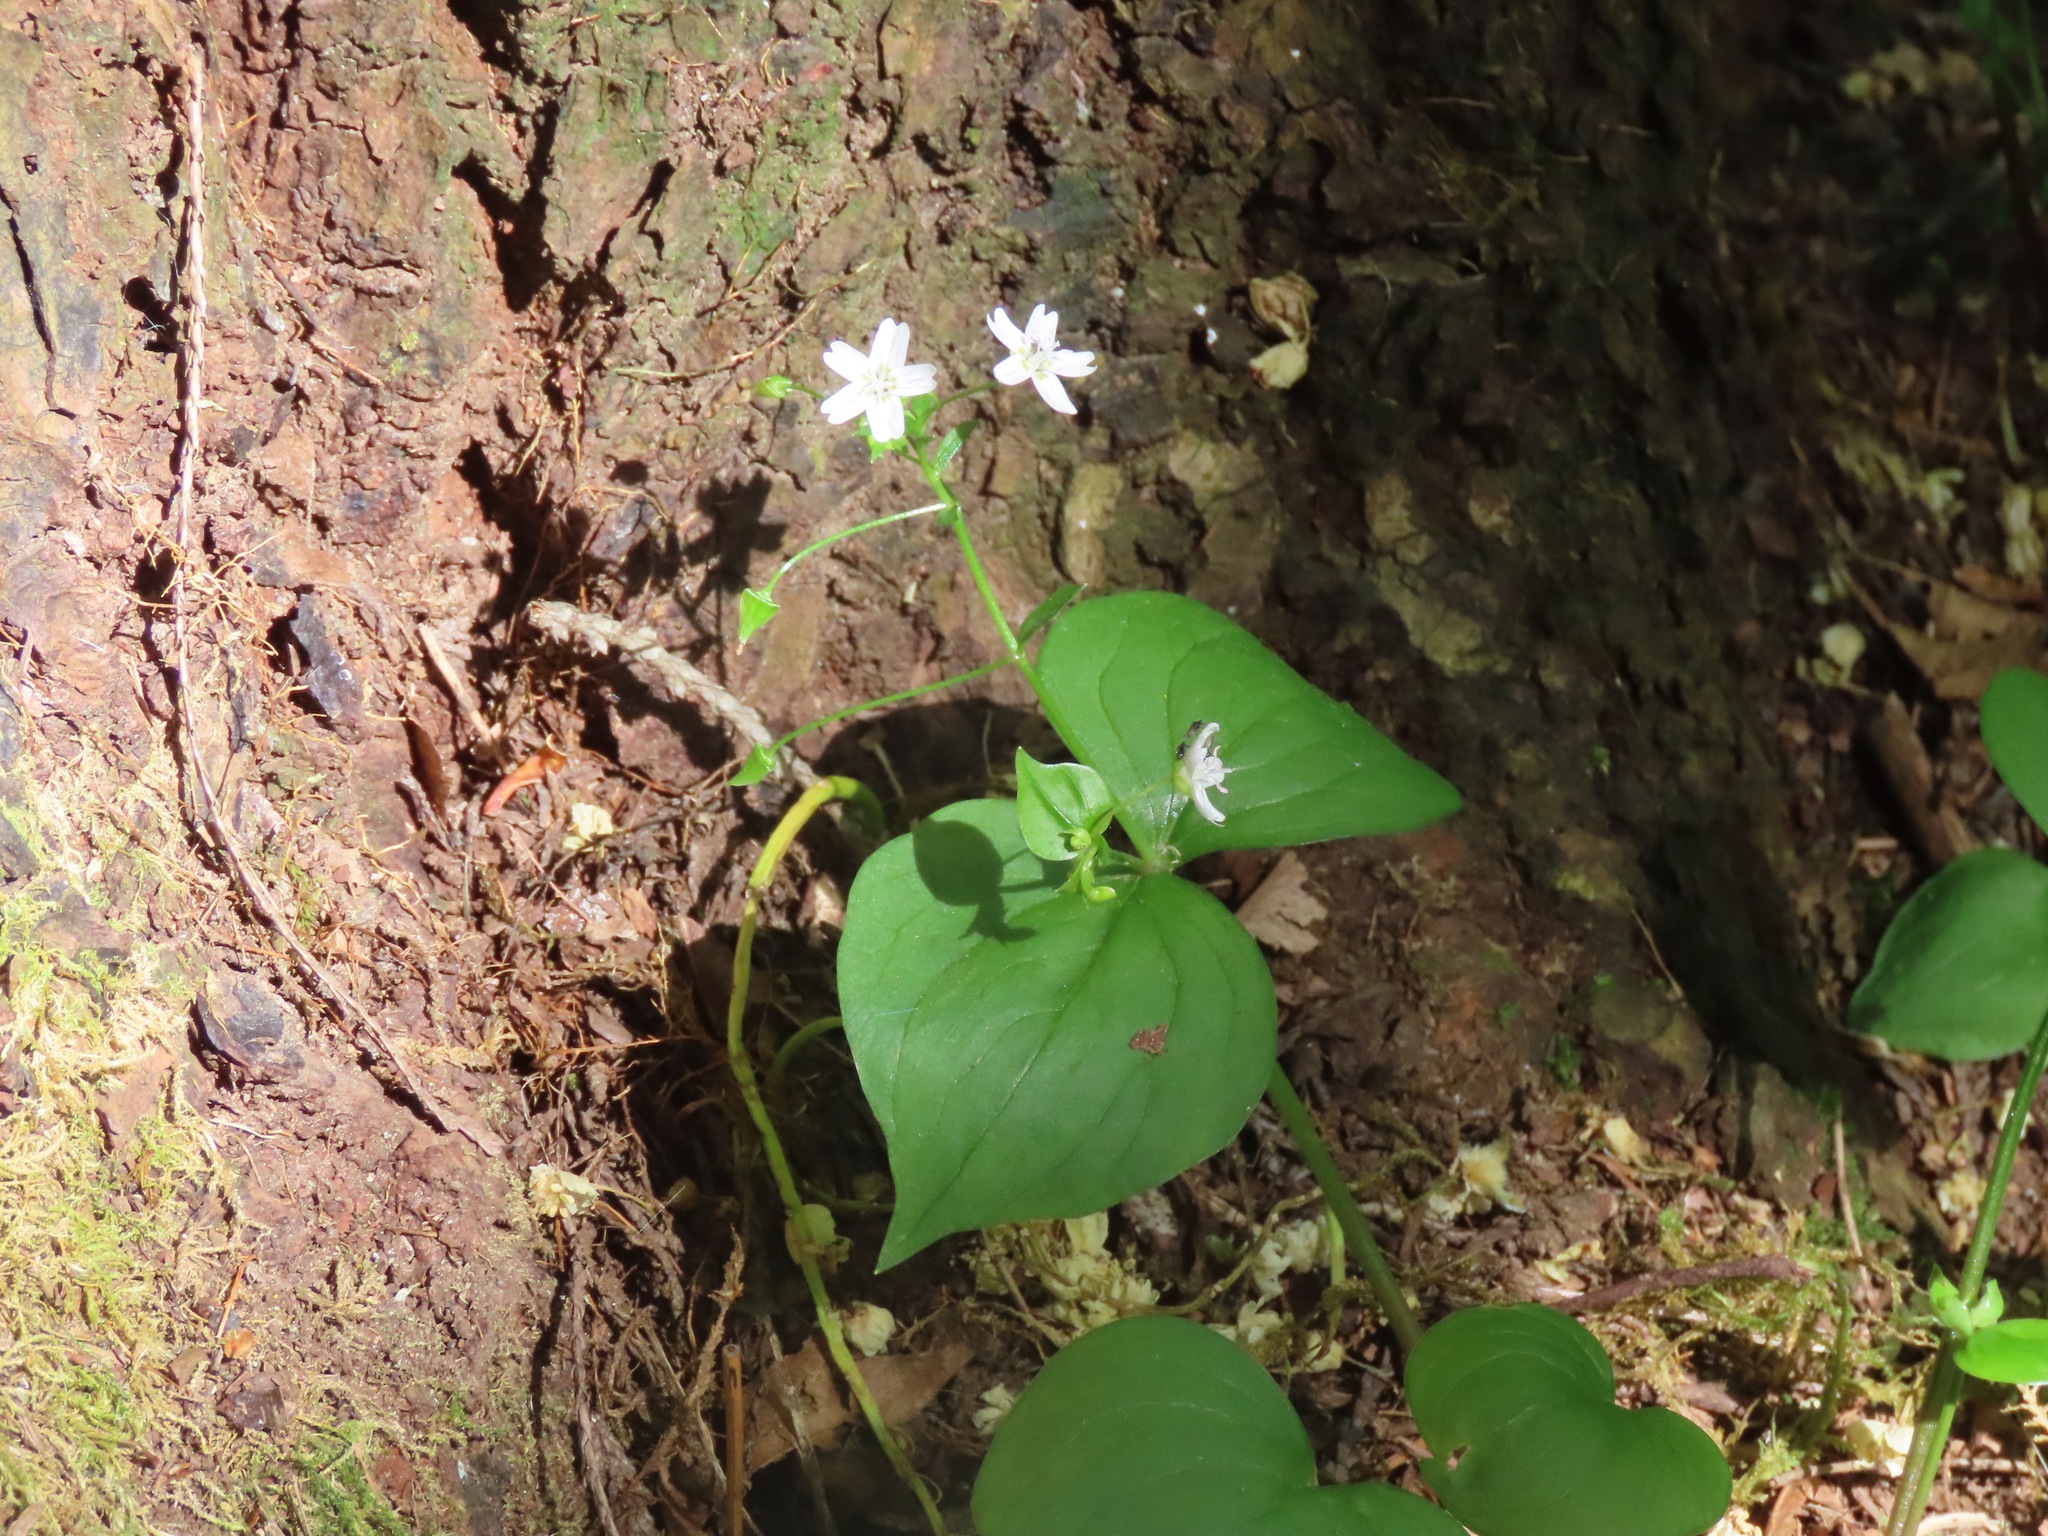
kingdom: Plantae
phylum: Tracheophyta
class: Magnoliopsida
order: Caryophyllales
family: Montiaceae
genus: Claytonia
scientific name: Claytonia sibirica
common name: Pink purslane
